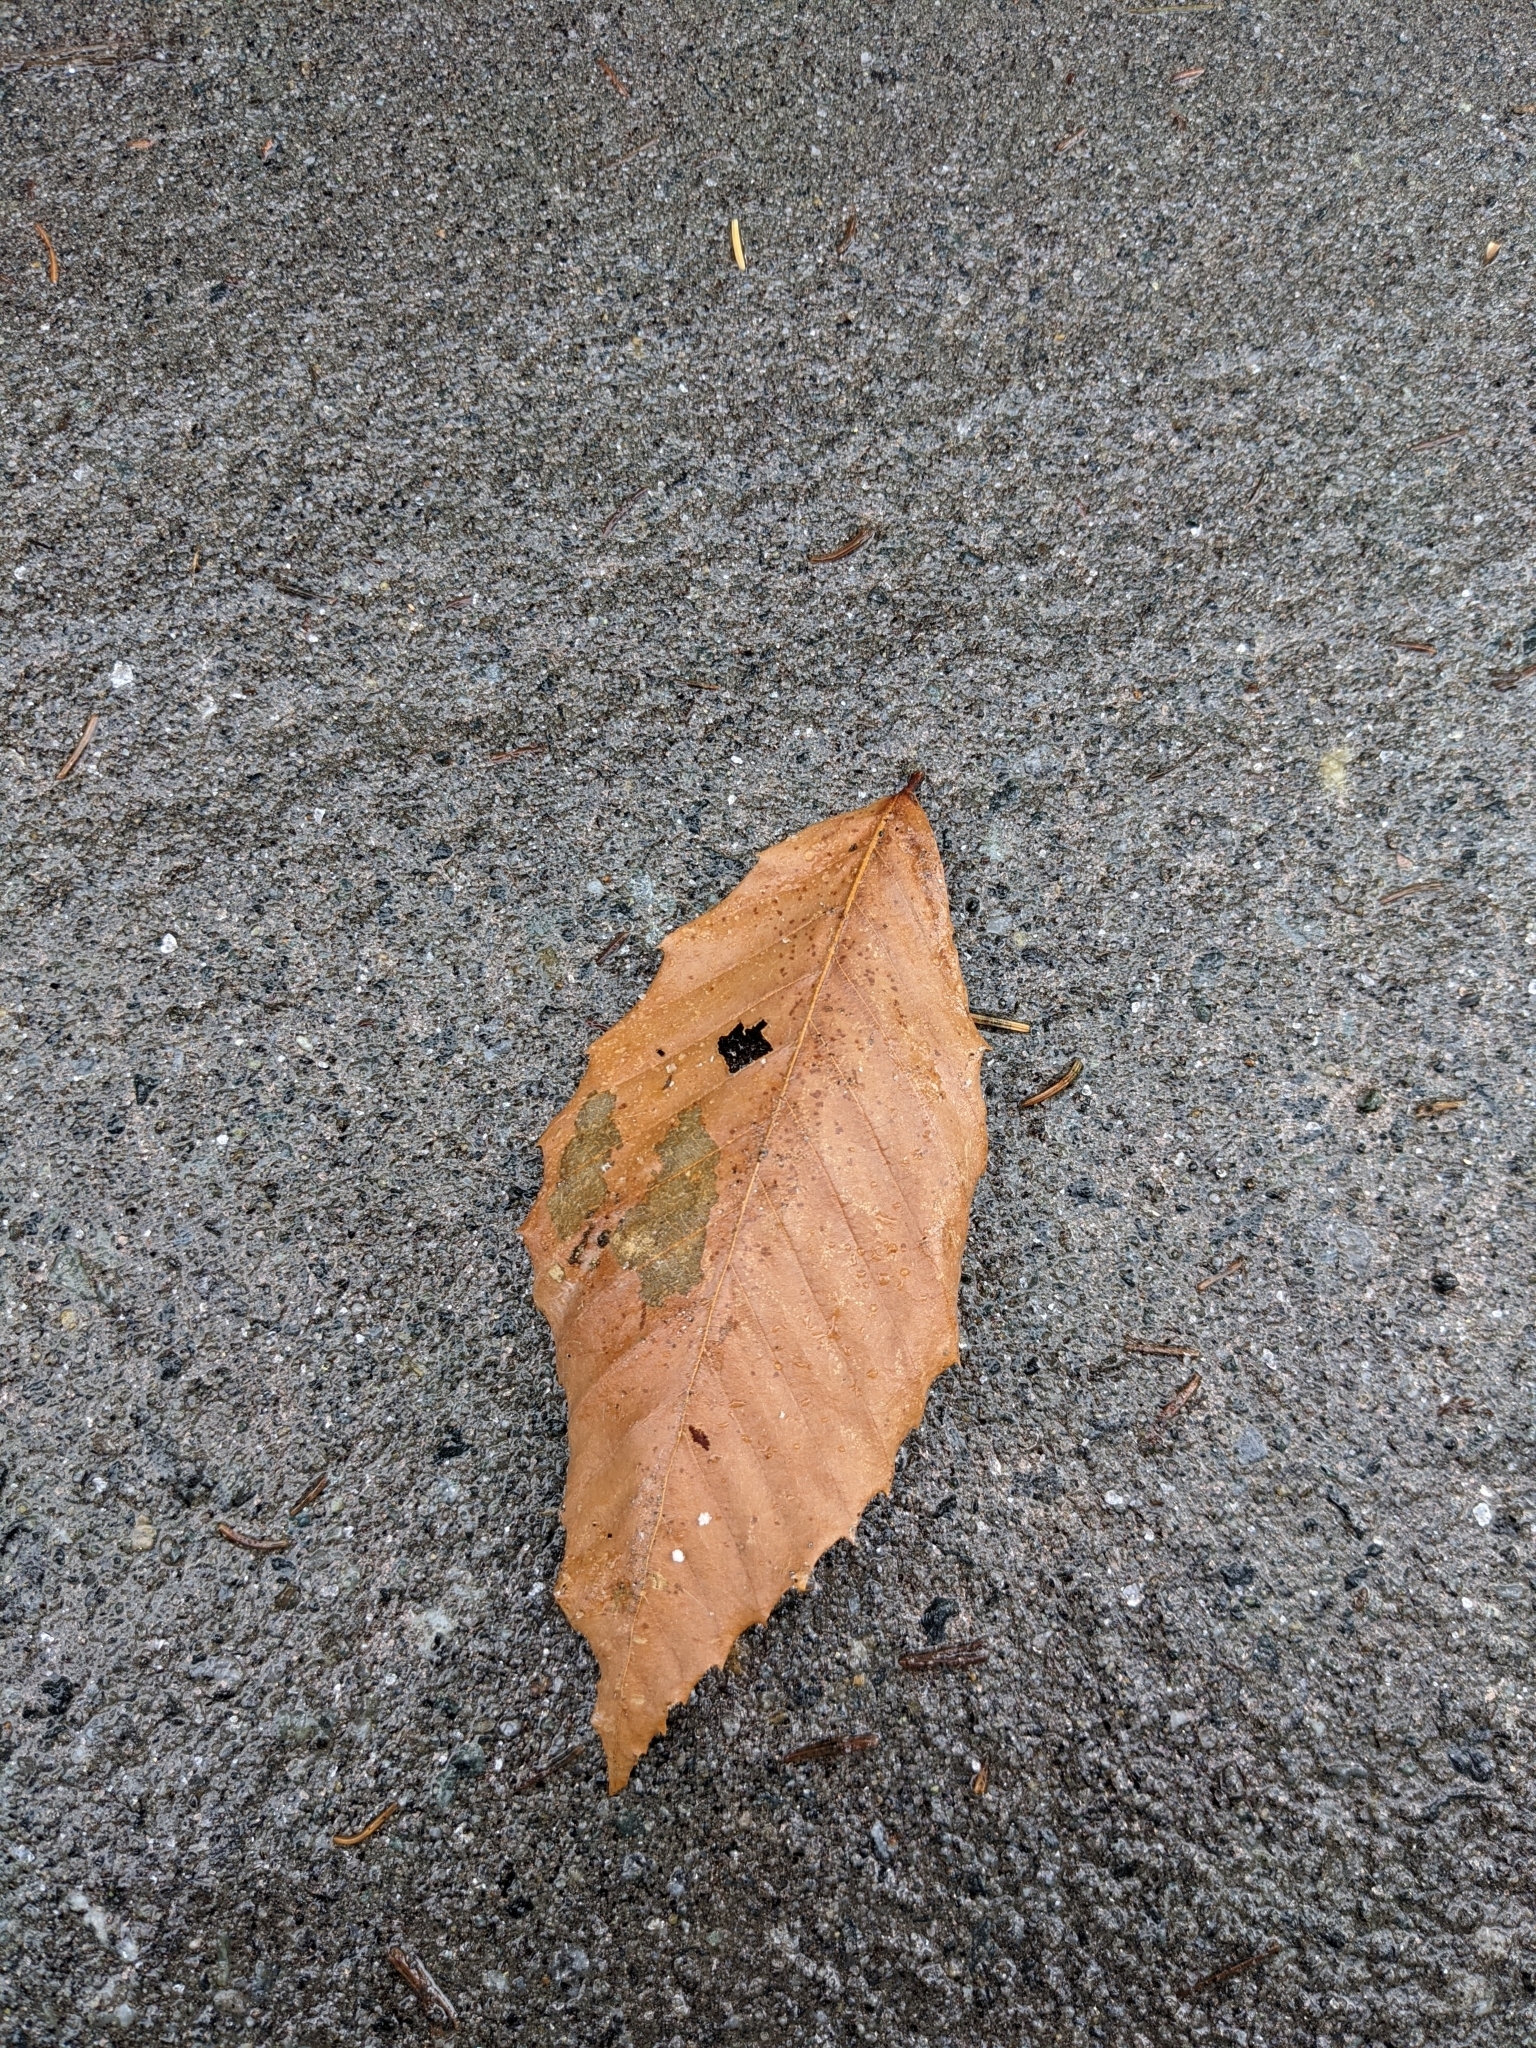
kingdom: Plantae
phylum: Tracheophyta
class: Magnoliopsida
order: Fagales
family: Fagaceae
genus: Fagus
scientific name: Fagus grandifolia
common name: American beech
